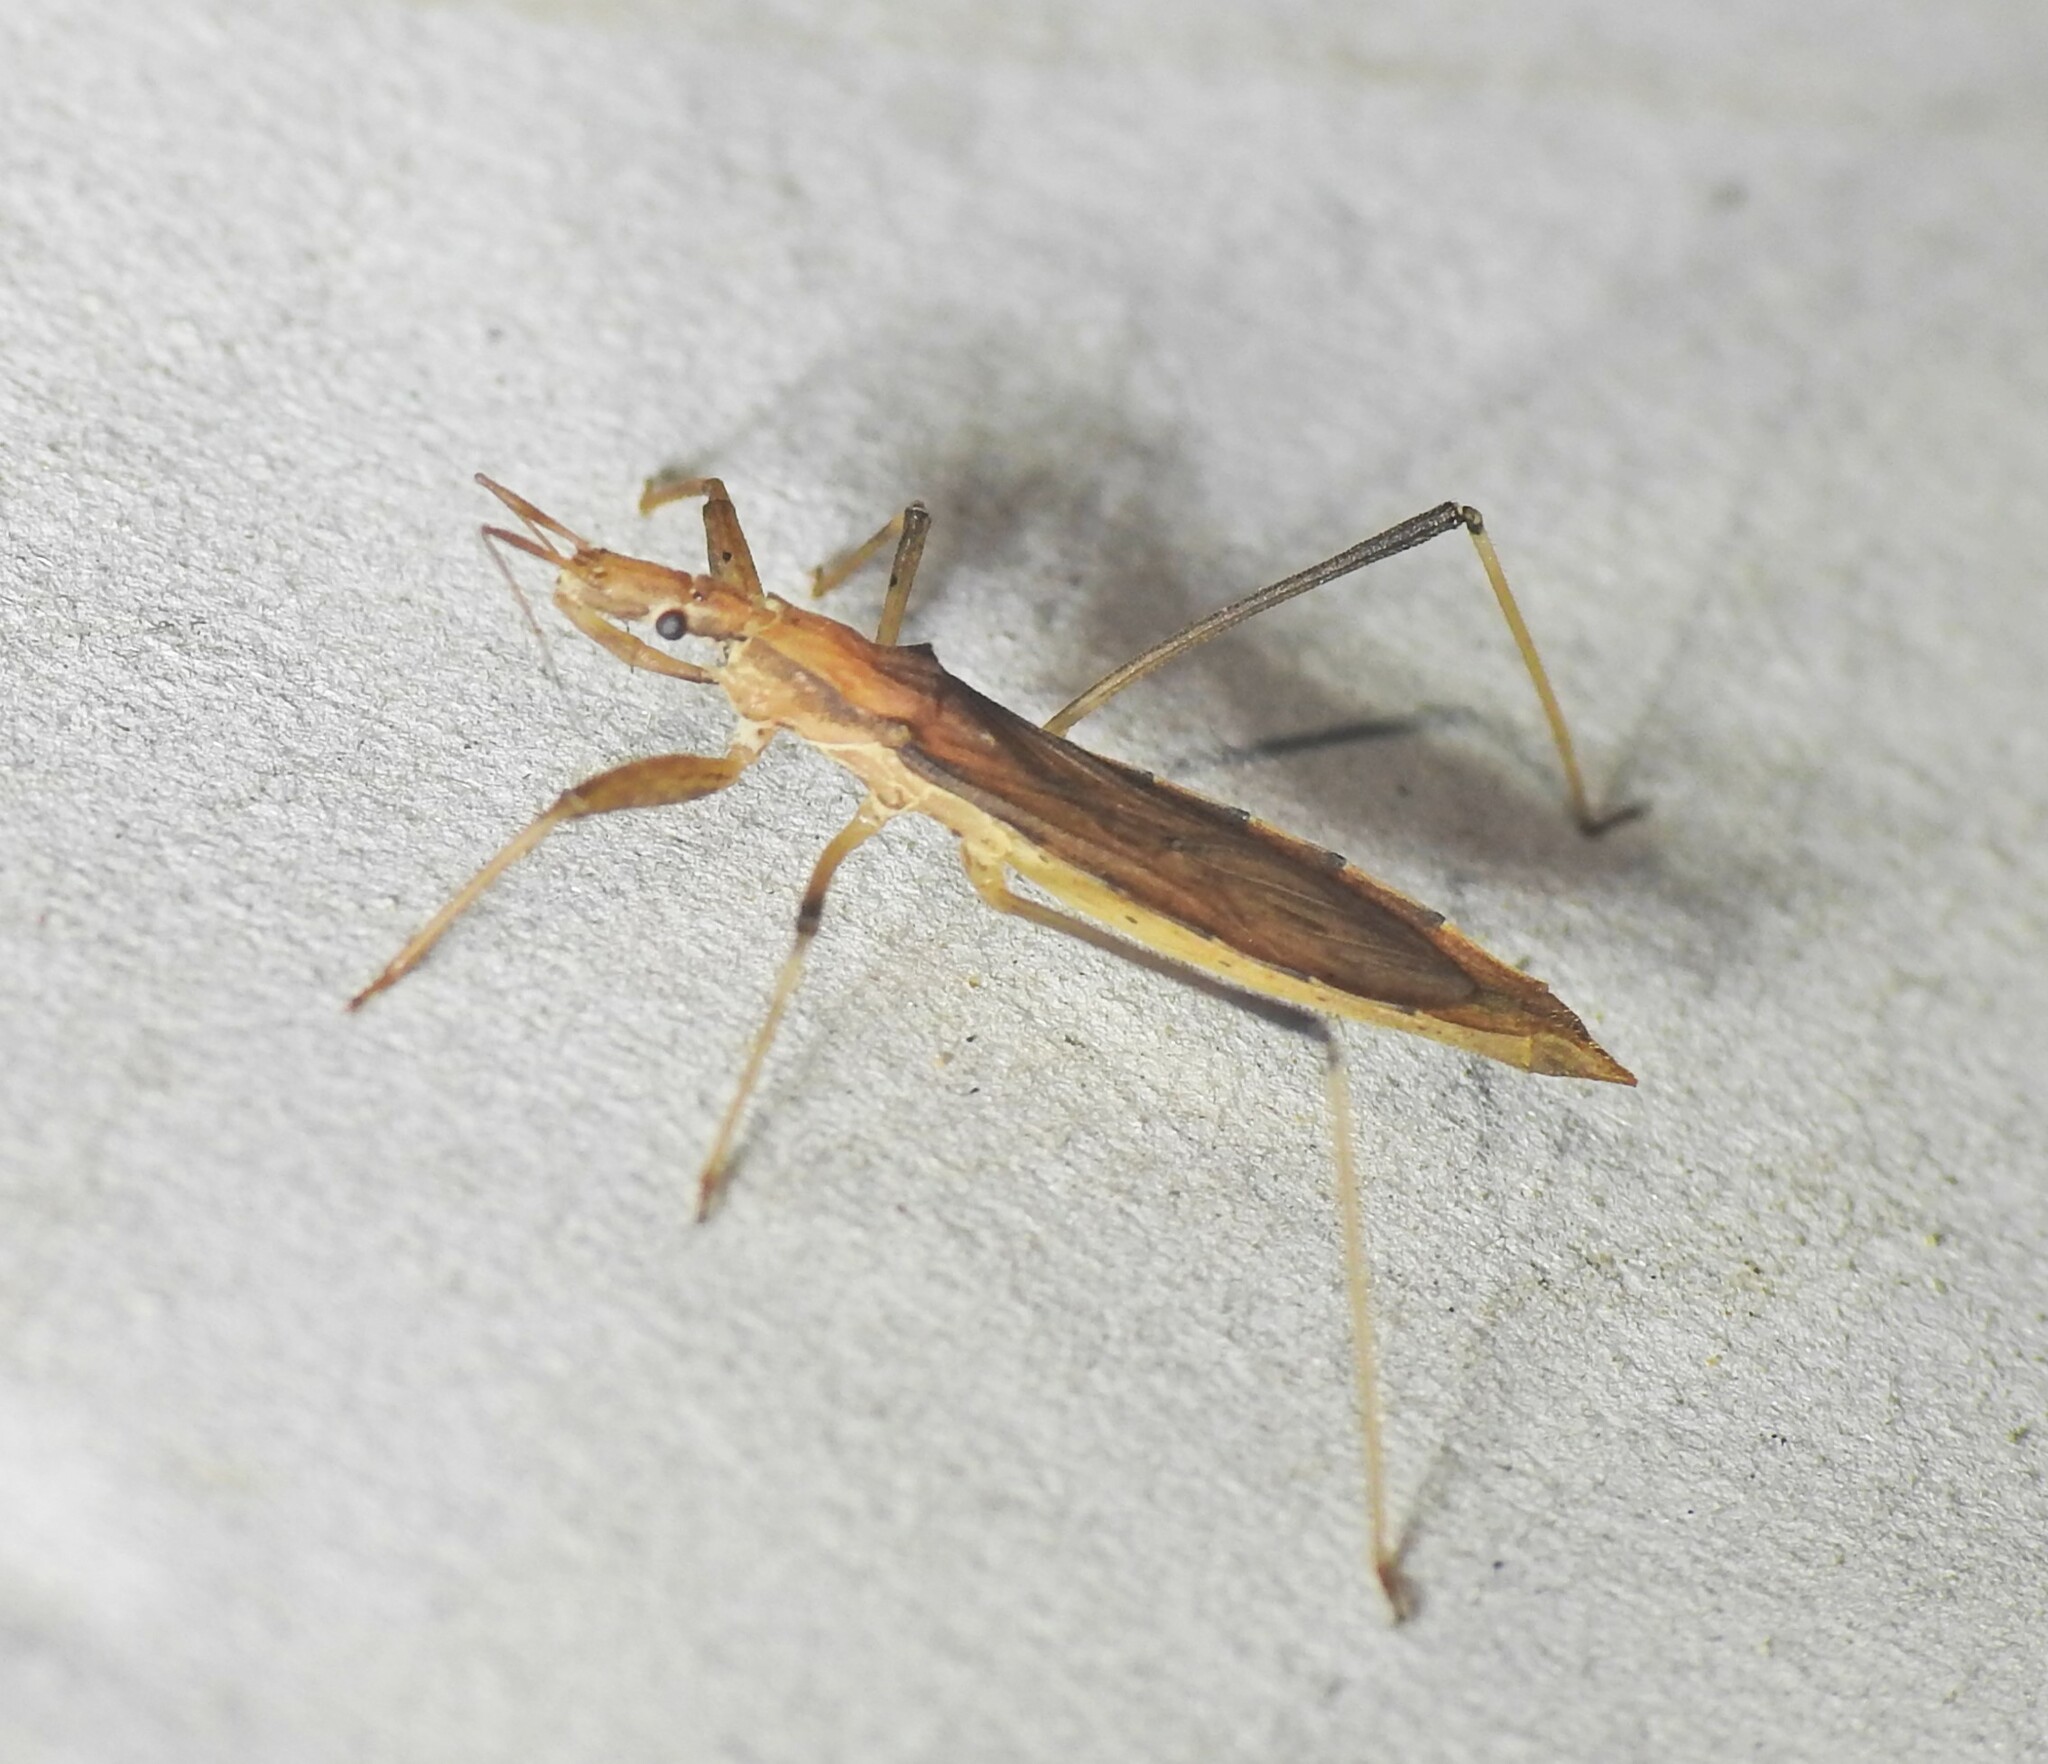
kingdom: Animalia
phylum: Arthropoda
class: Insecta
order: Hemiptera
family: Reduviidae
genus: Sastrapada
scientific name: Sastrapada australica
